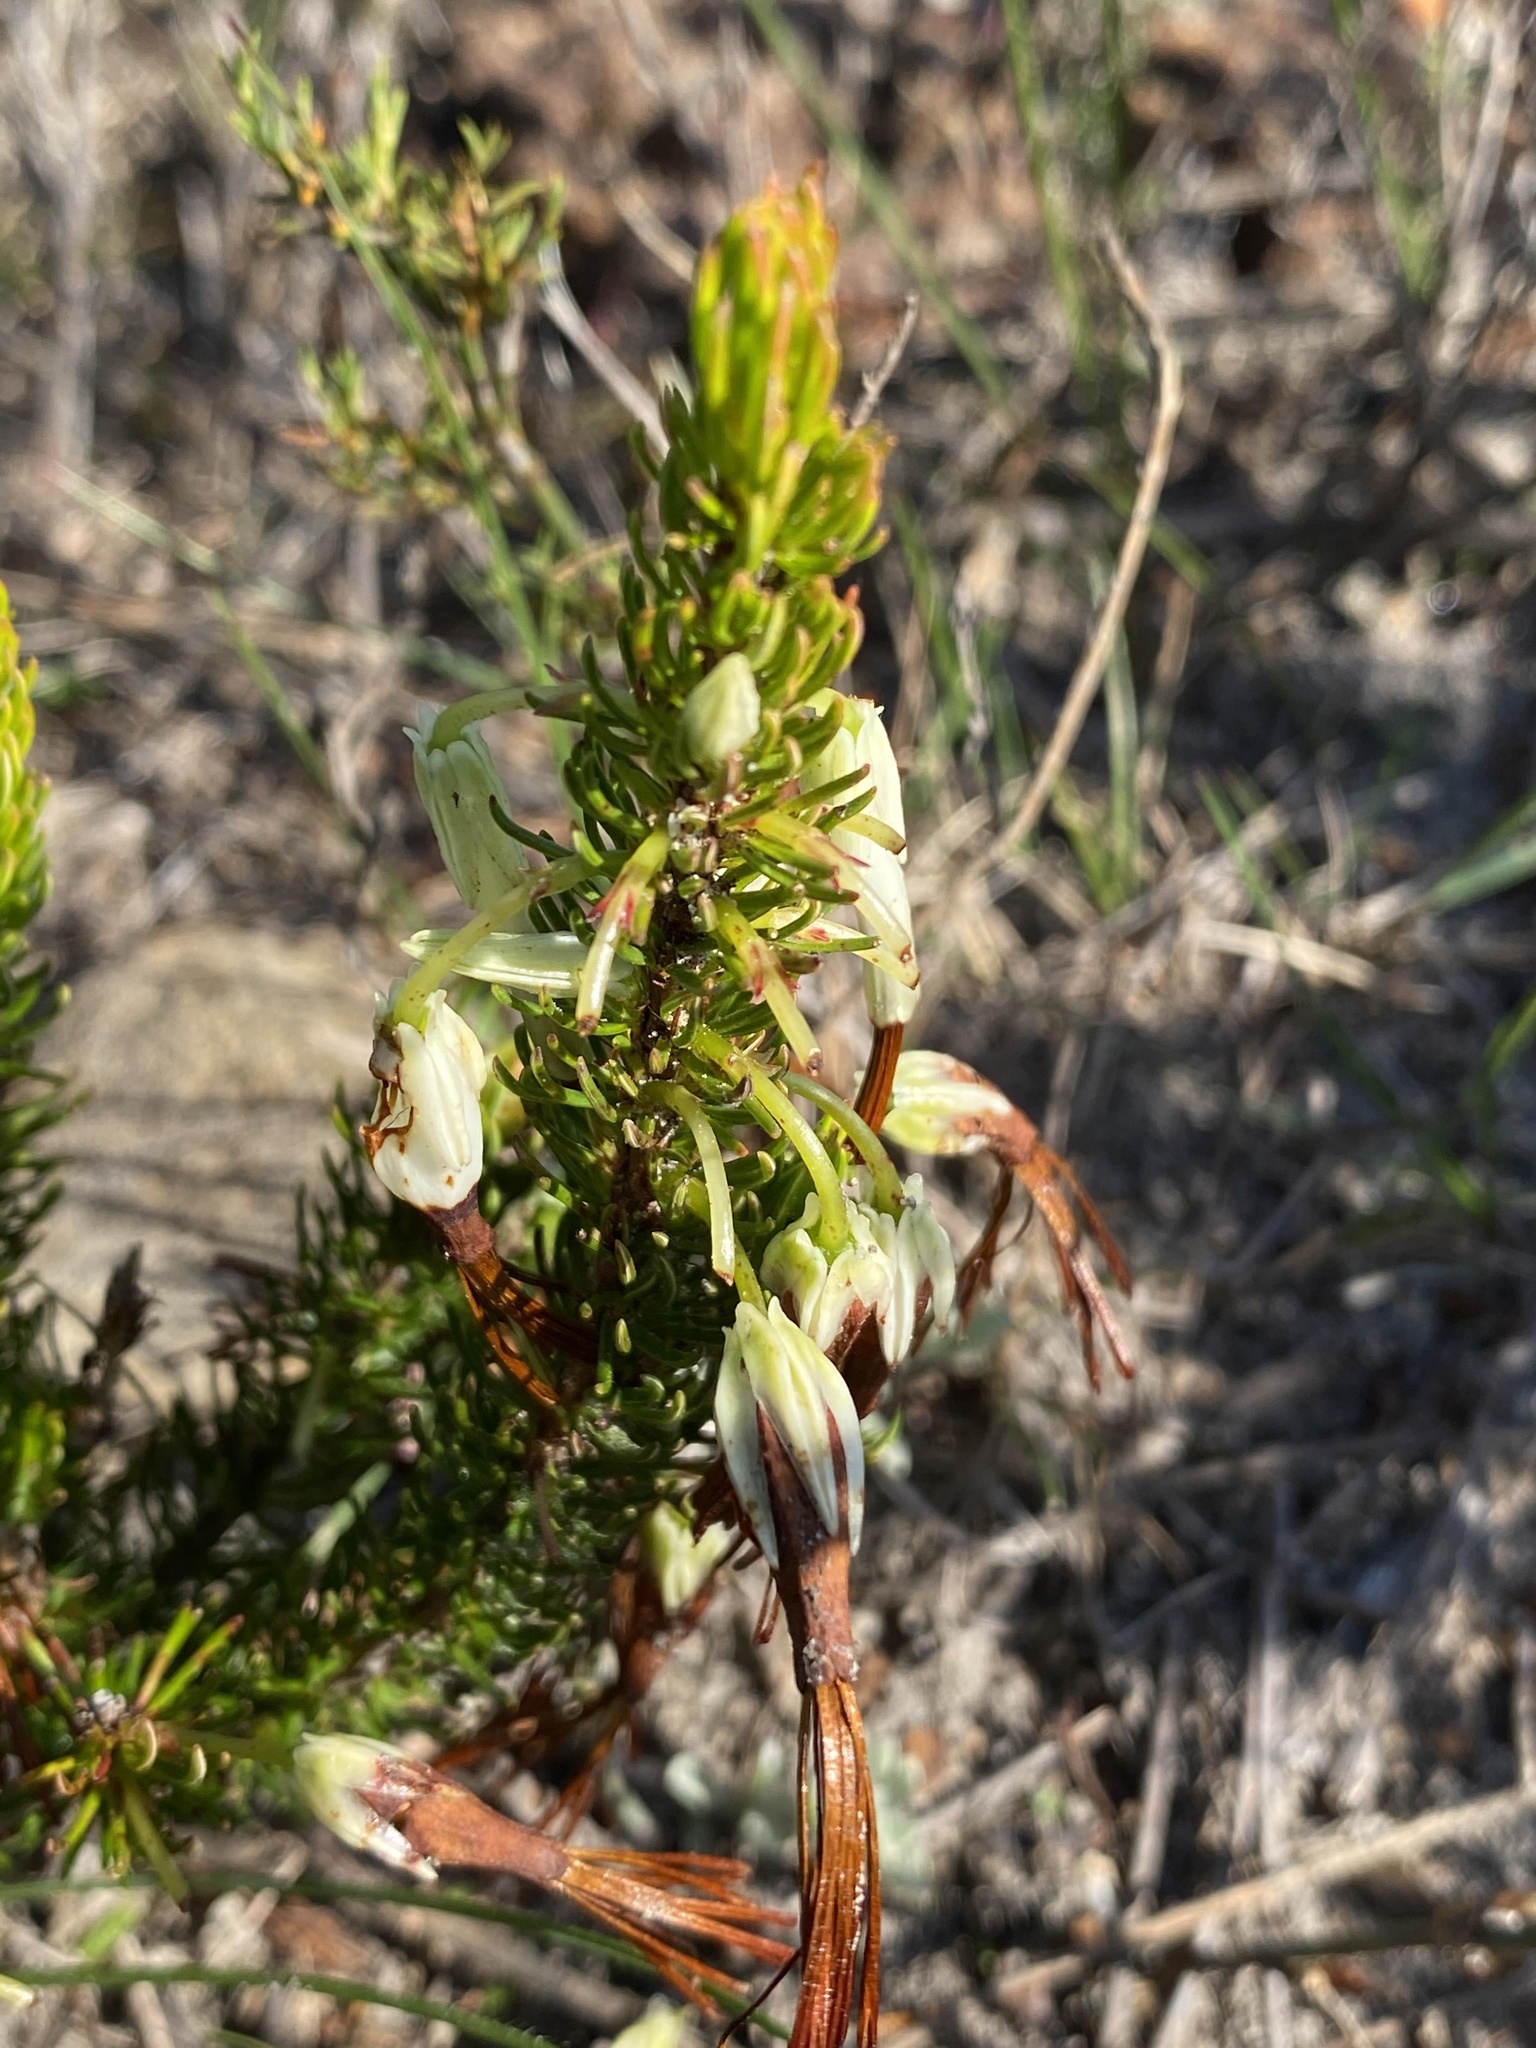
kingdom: Plantae
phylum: Tracheophyta
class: Magnoliopsida
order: Ericales
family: Ericaceae
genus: Erica
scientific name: Erica plukenetii
